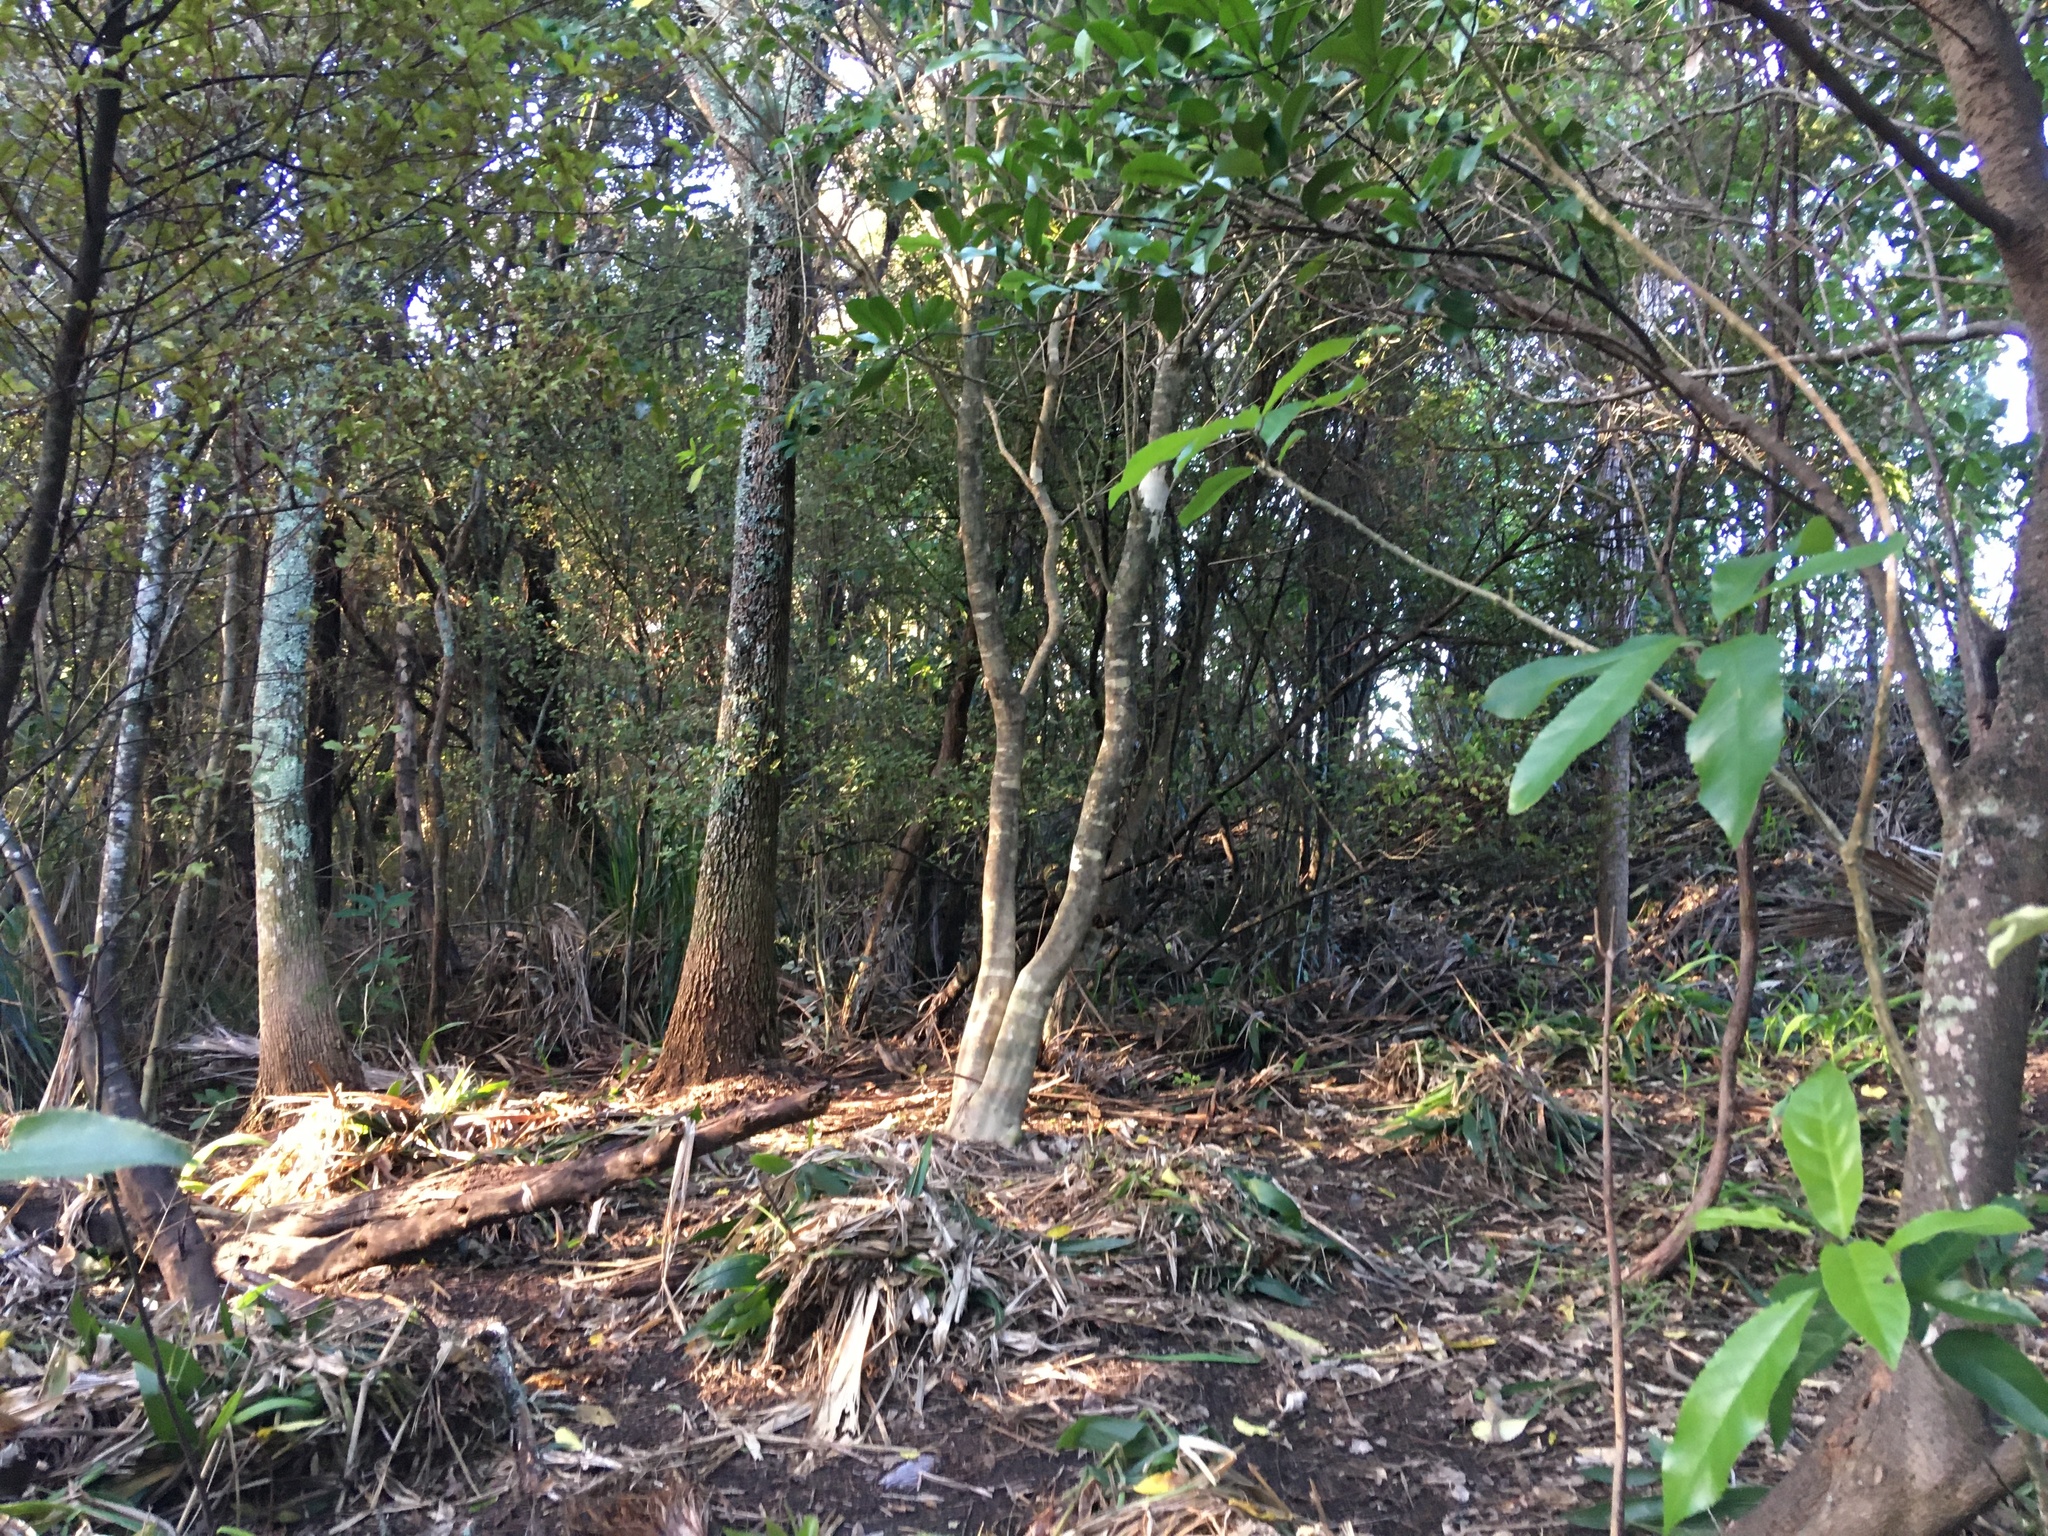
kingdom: Plantae
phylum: Tracheophyta
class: Liliopsida
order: Asparagales
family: Asparagaceae
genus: Cordyline
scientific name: Cordyline australis
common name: Cabbage-palm
